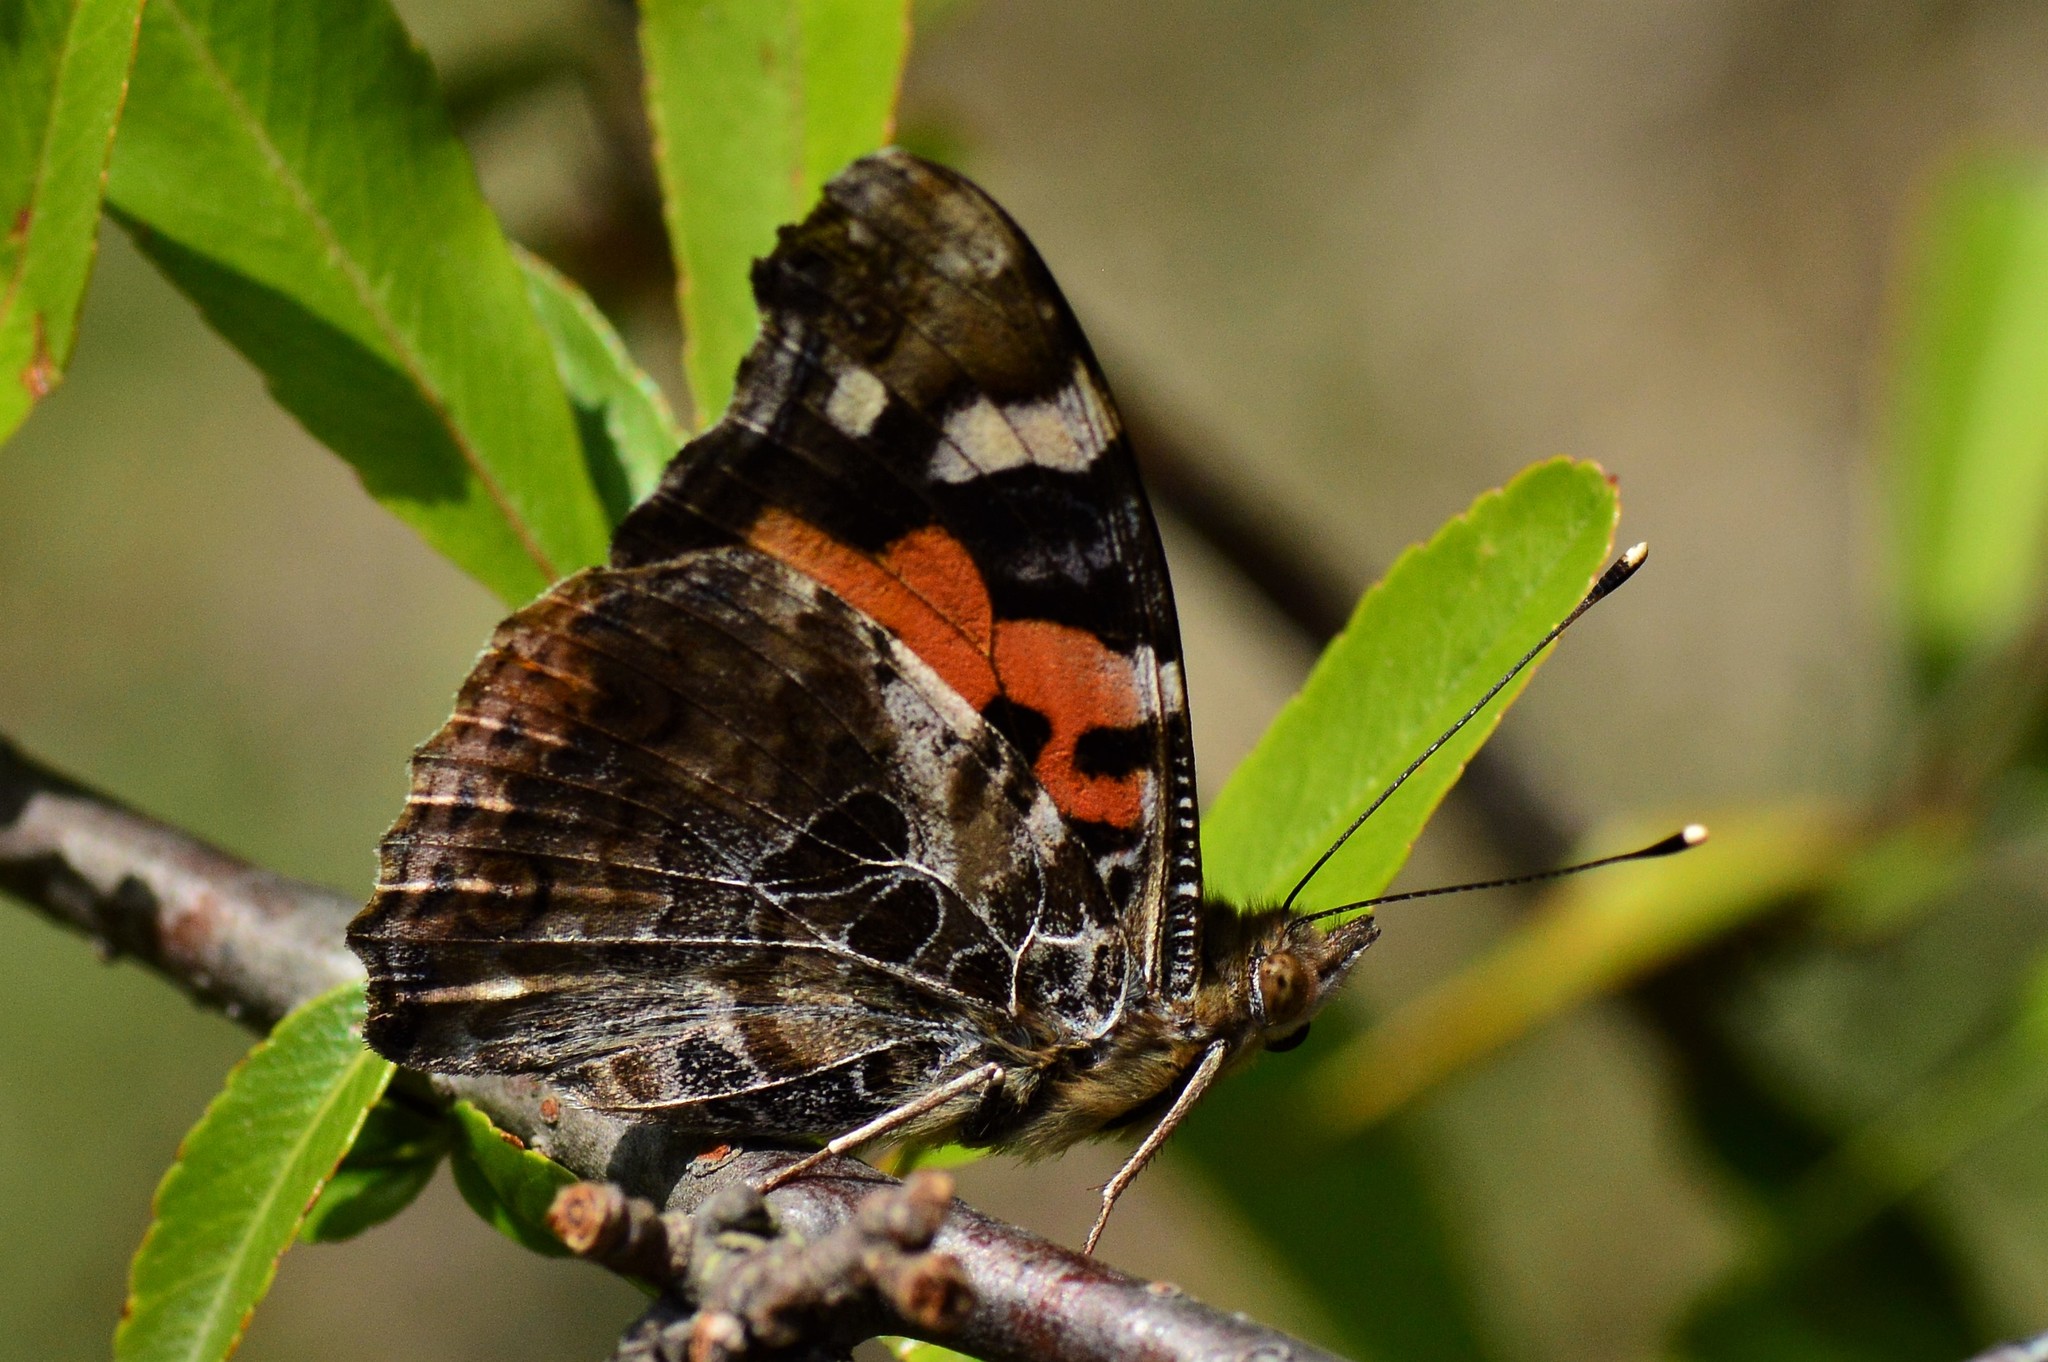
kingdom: Animalia
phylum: Arthropoda
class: Insecta
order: Lepidoptera
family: Nymphalidae
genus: Vanessa
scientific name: Vanessa indica
